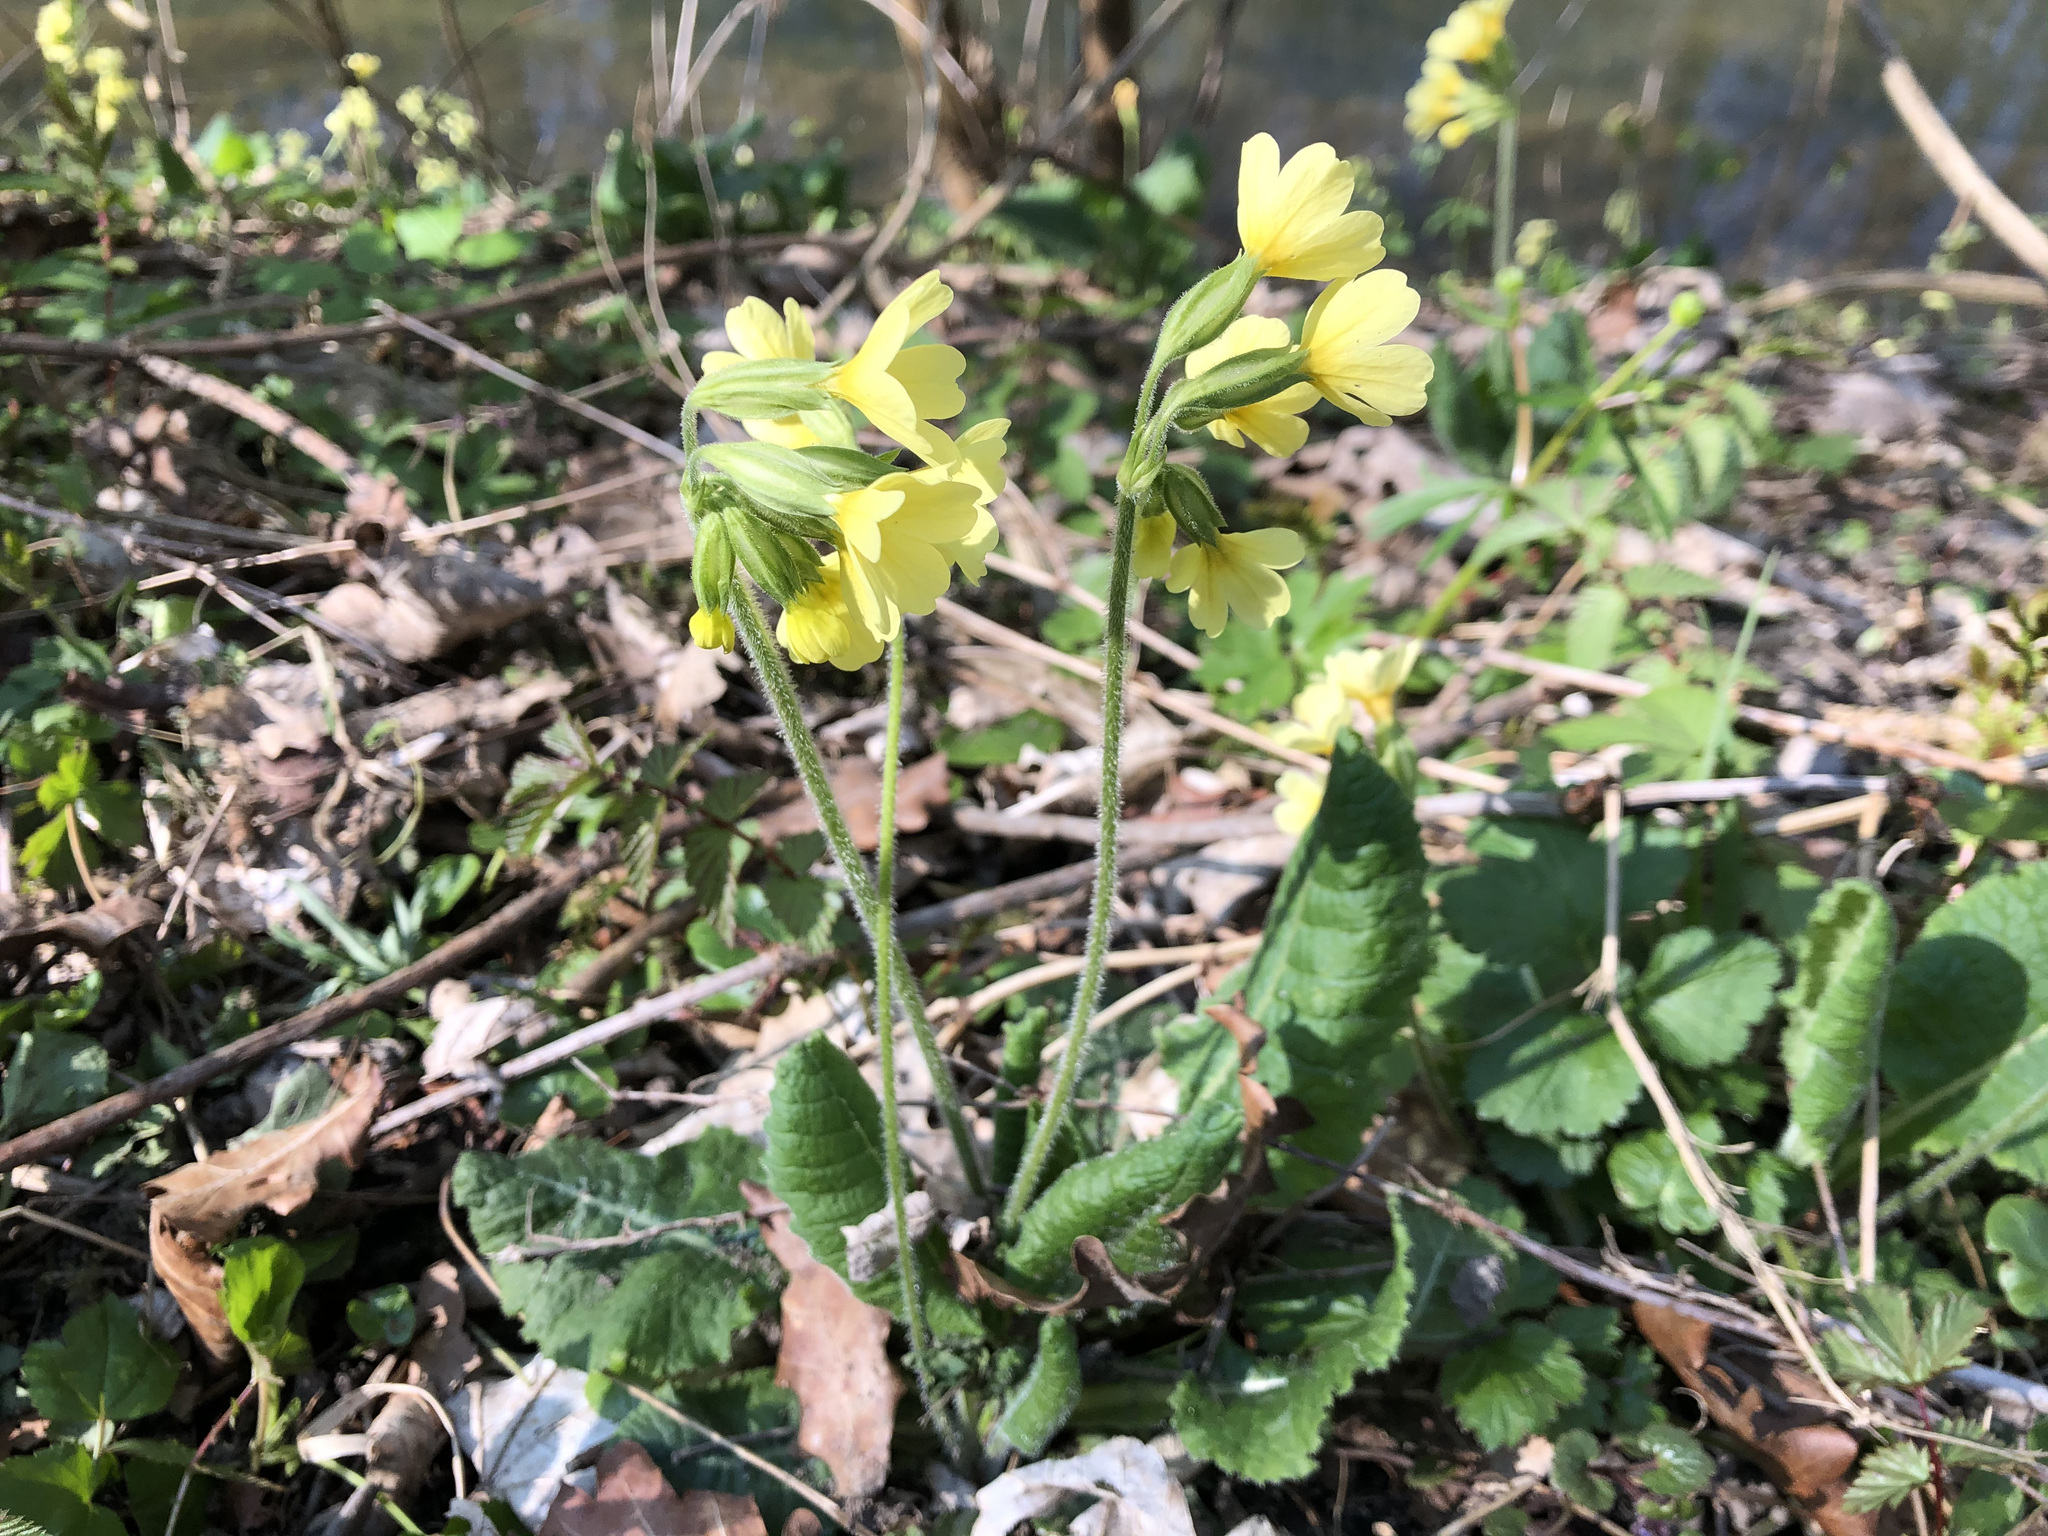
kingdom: Plantae
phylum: Tracheophyta
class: Magnoliopsida
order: Ericales
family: Primulaceae
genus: Primula
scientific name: Primula elatior
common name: Oxlip
